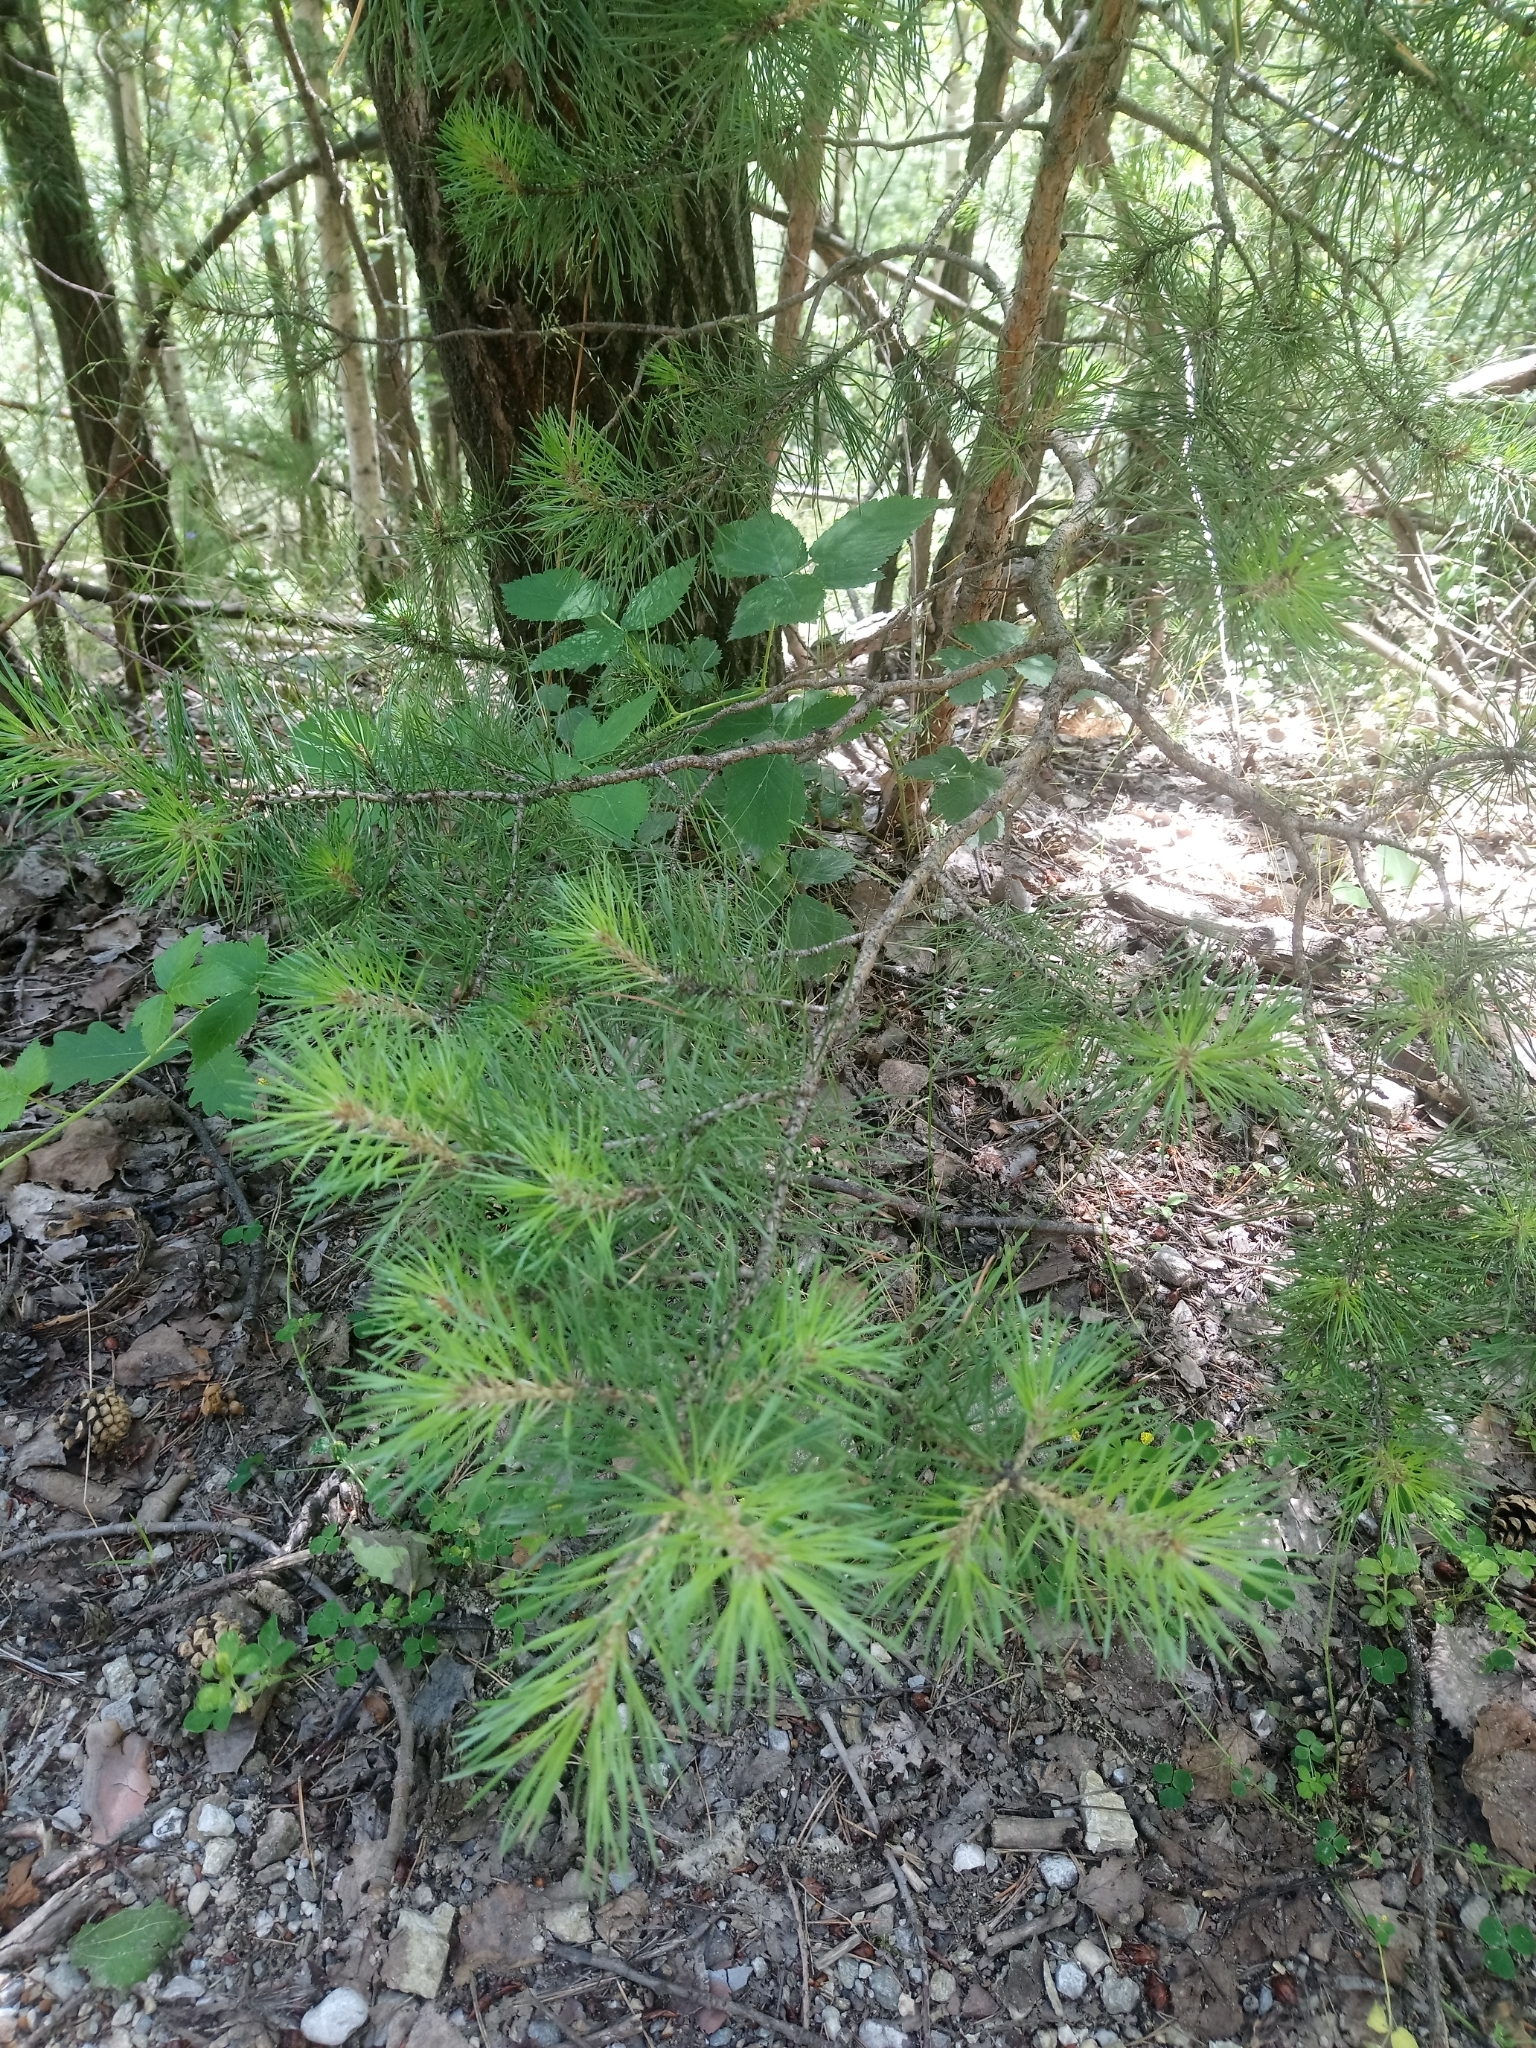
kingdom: Plantae
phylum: Tracheophyta
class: Pinopsida
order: Pinales
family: Pinaceae
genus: Pinus
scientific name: Pinus strobus
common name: Weymouth pine
